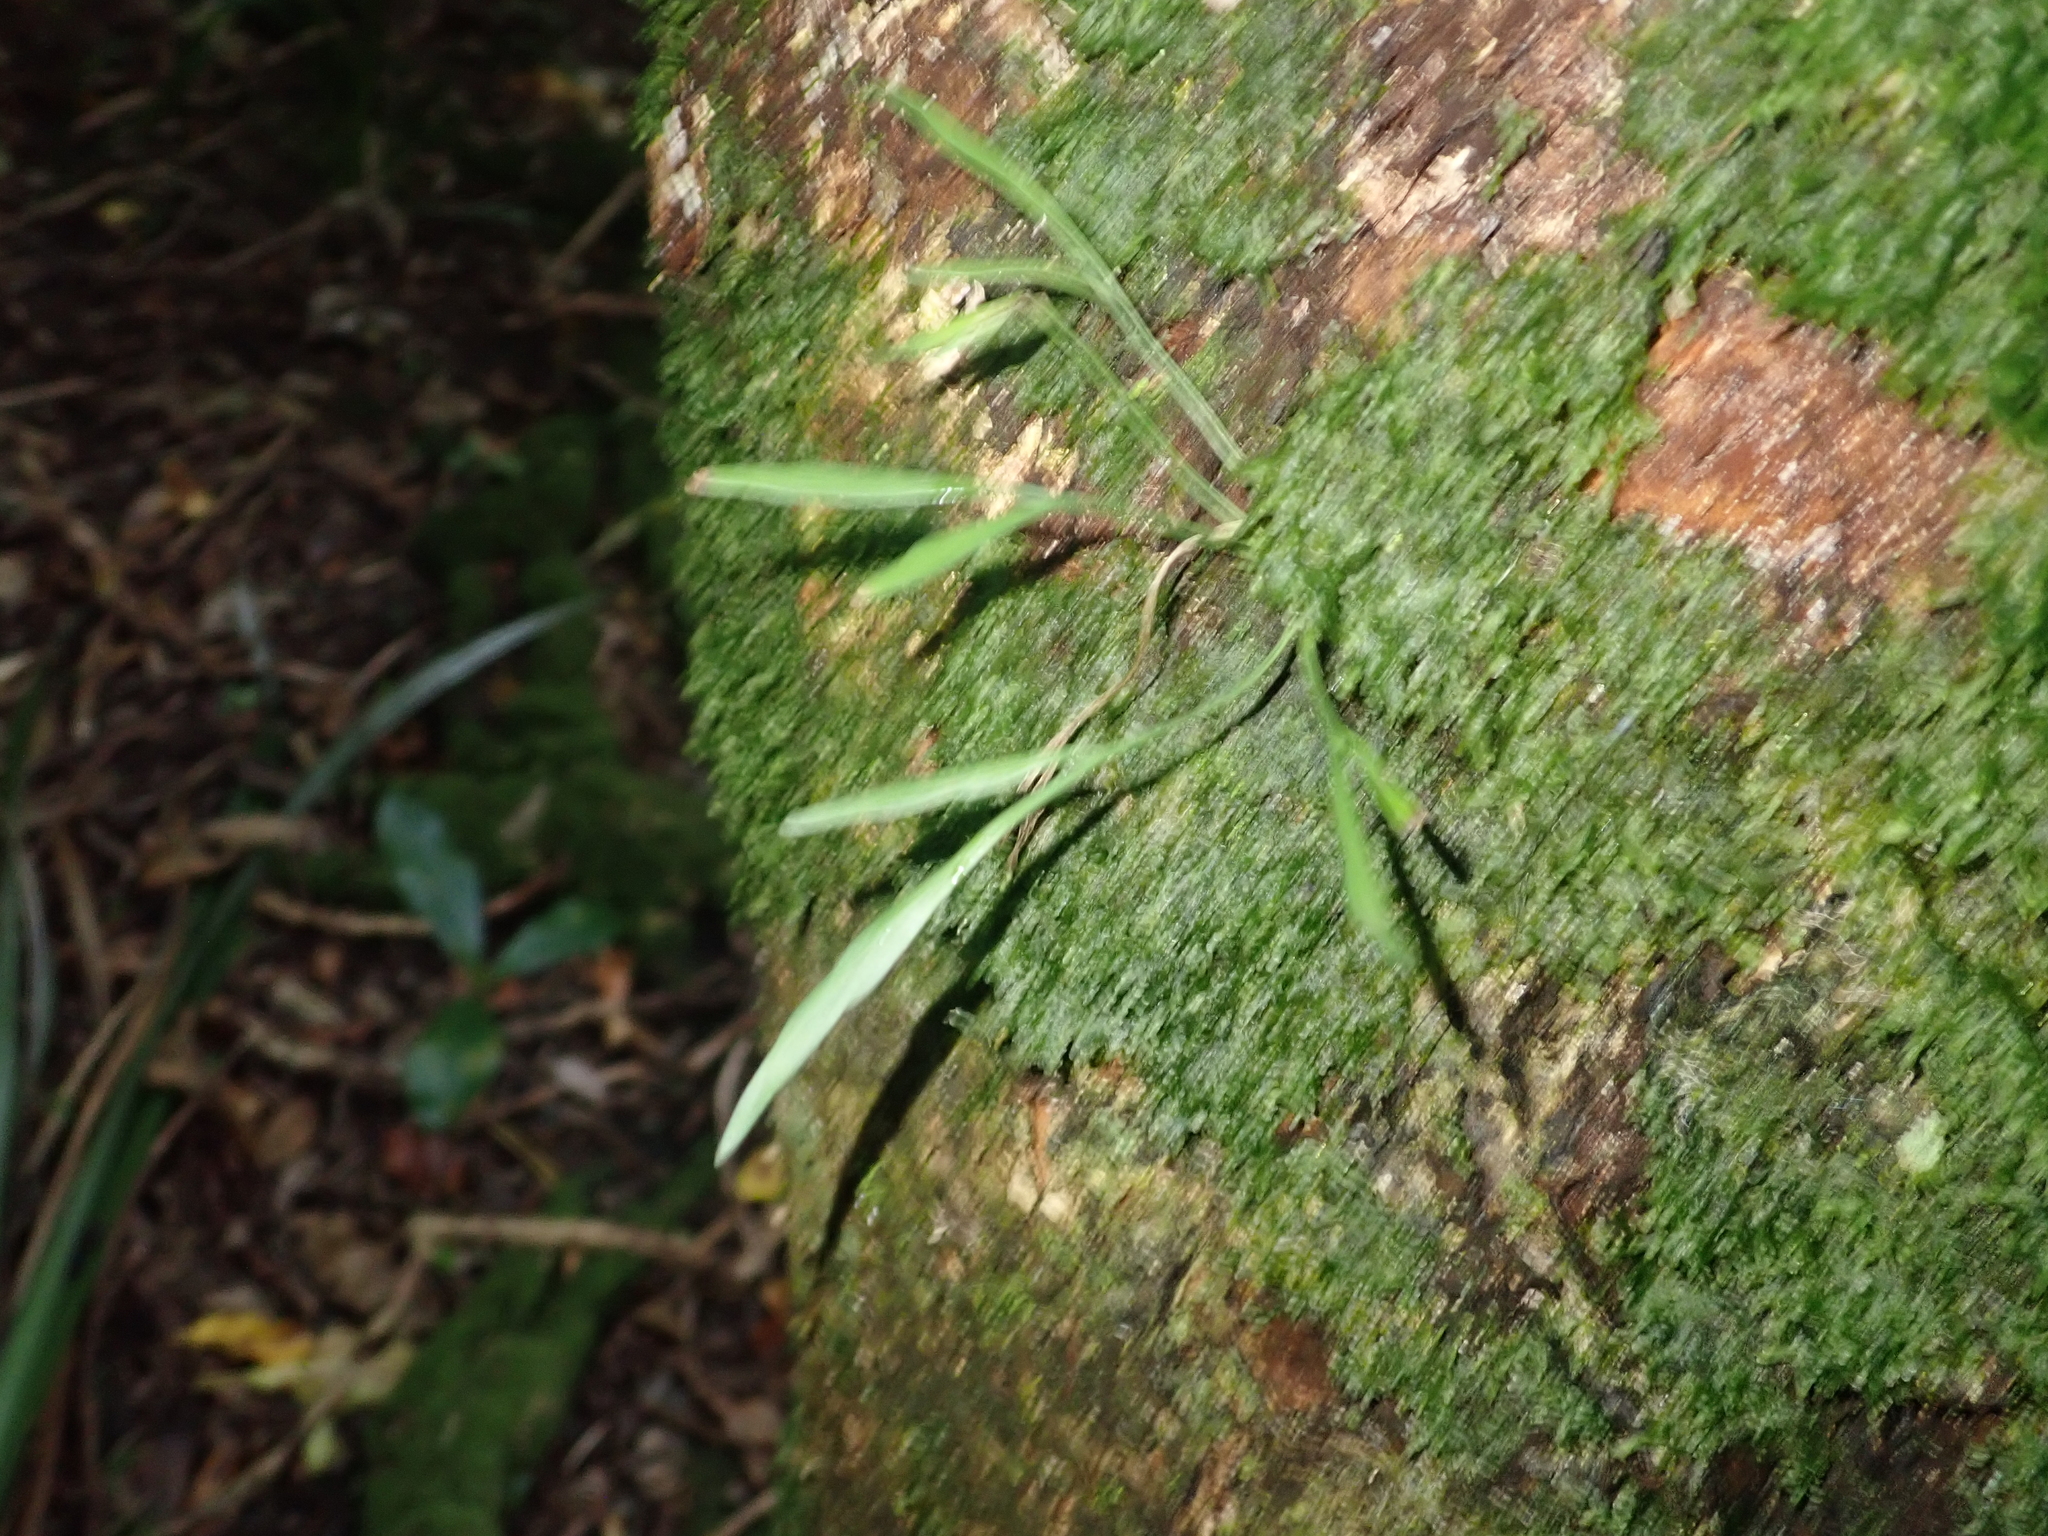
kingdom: Plantae
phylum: Tracheophyta
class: Polypodiopsida
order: Polypodiales
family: Aspleniaceae
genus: Asplenium
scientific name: Asplenium flaccidum
